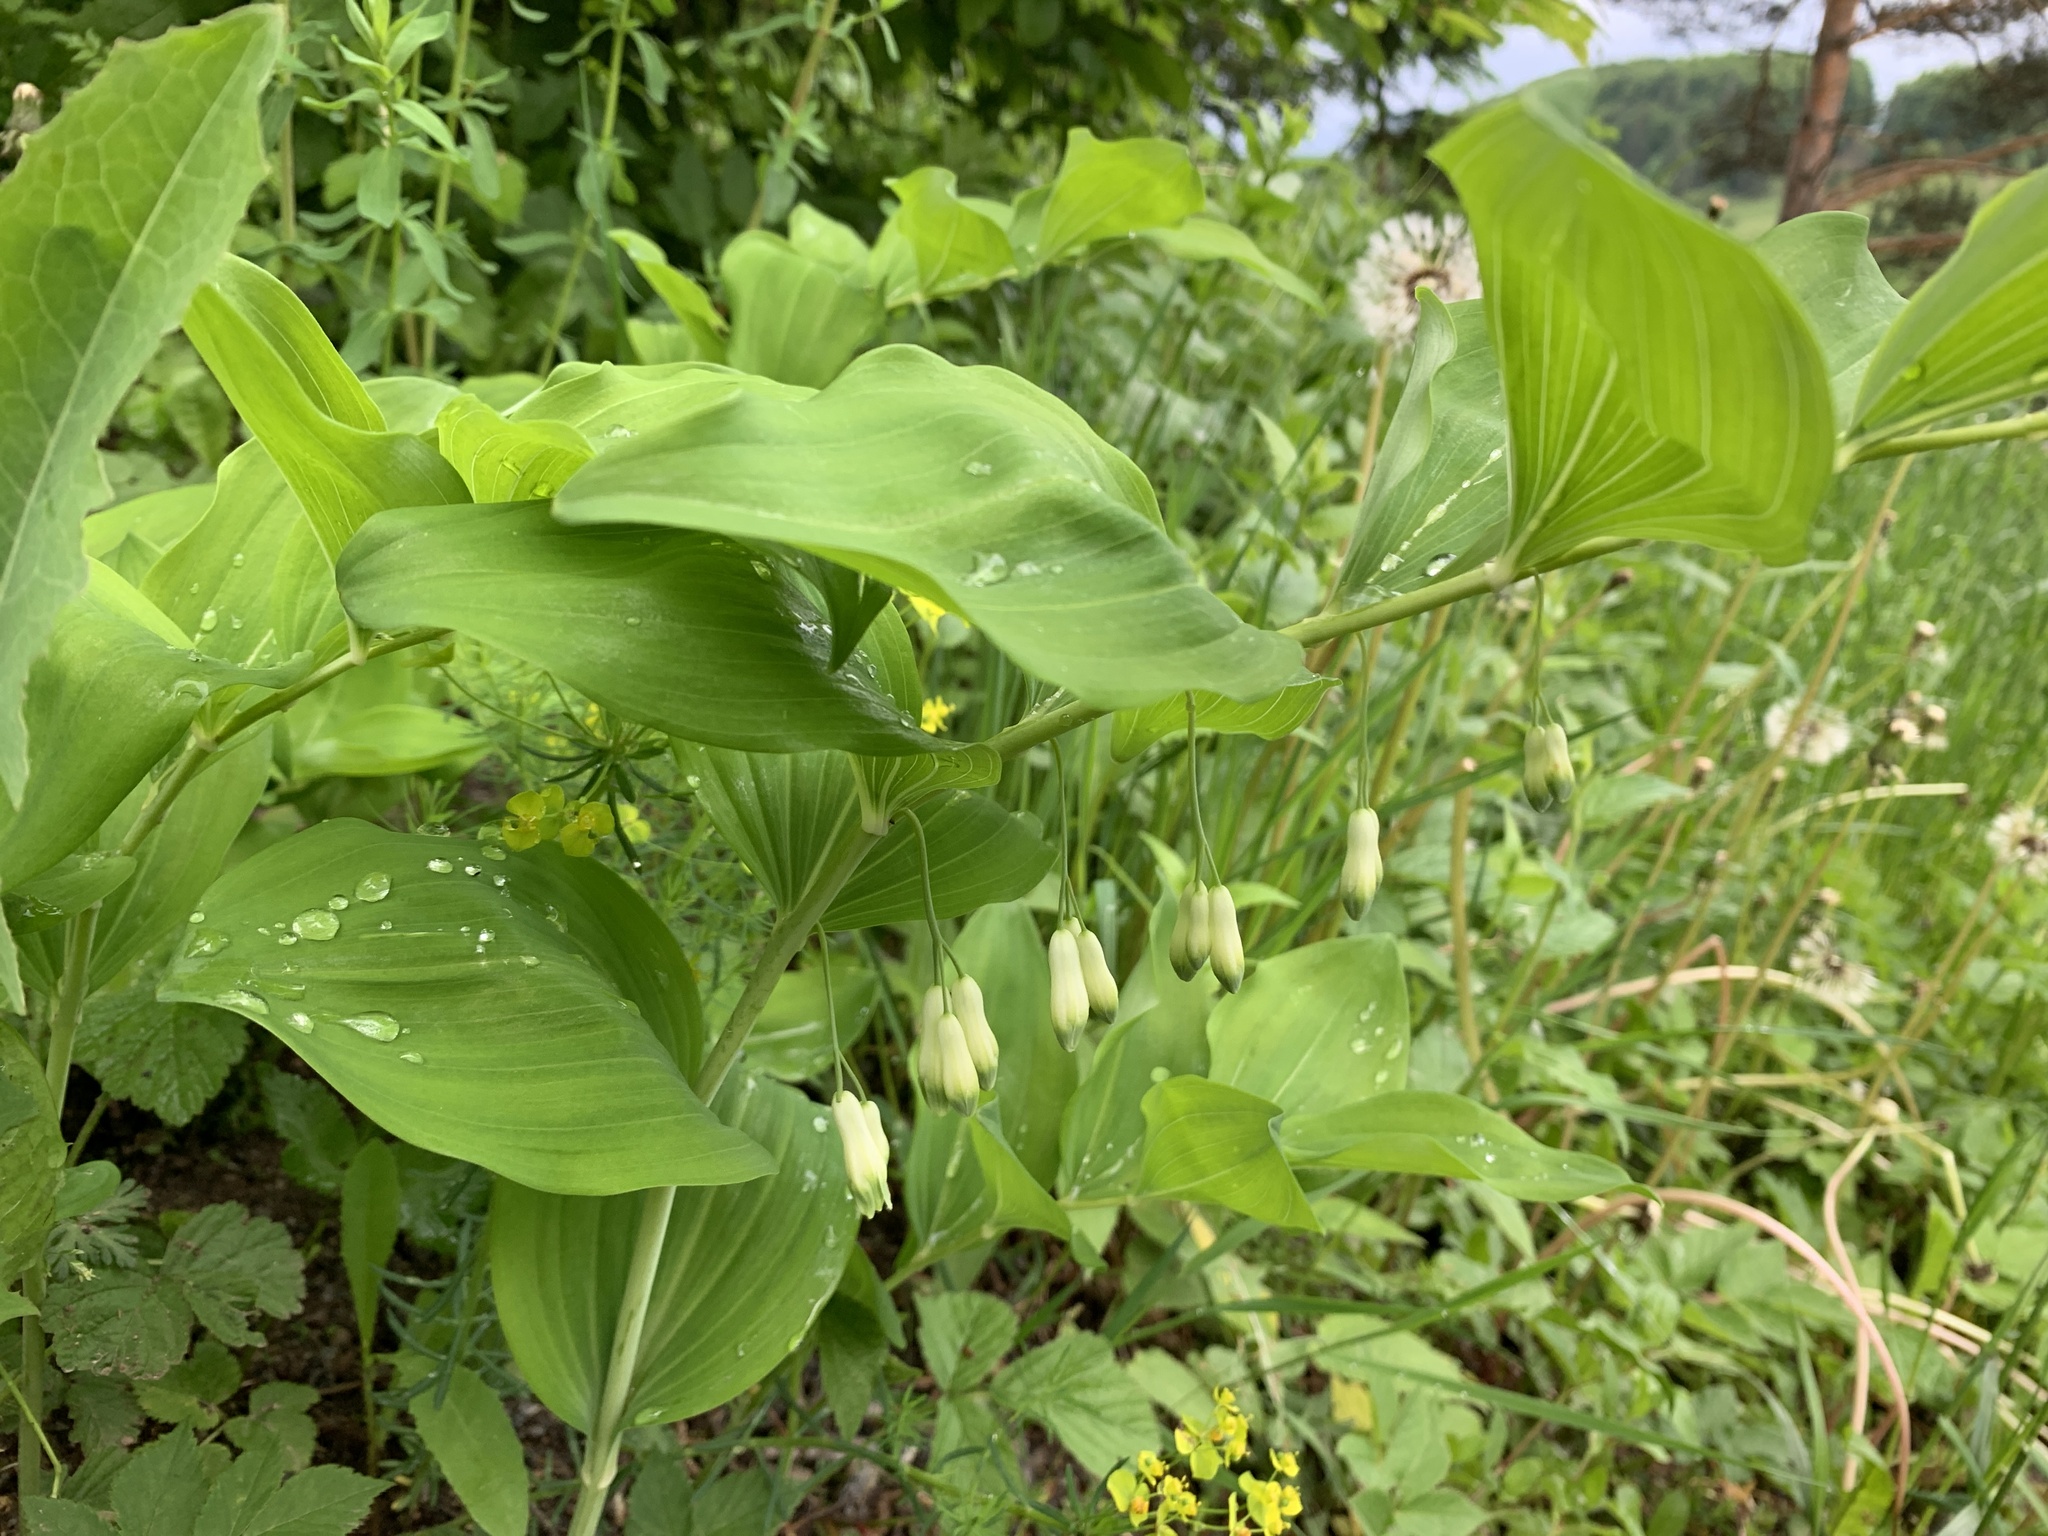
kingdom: Plantae
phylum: Tracheophyta
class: Liliopsida
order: Asparagales
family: Asparagaceae
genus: Polygonatum
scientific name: Polygonatum multiflorum
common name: Solomon's-seal
